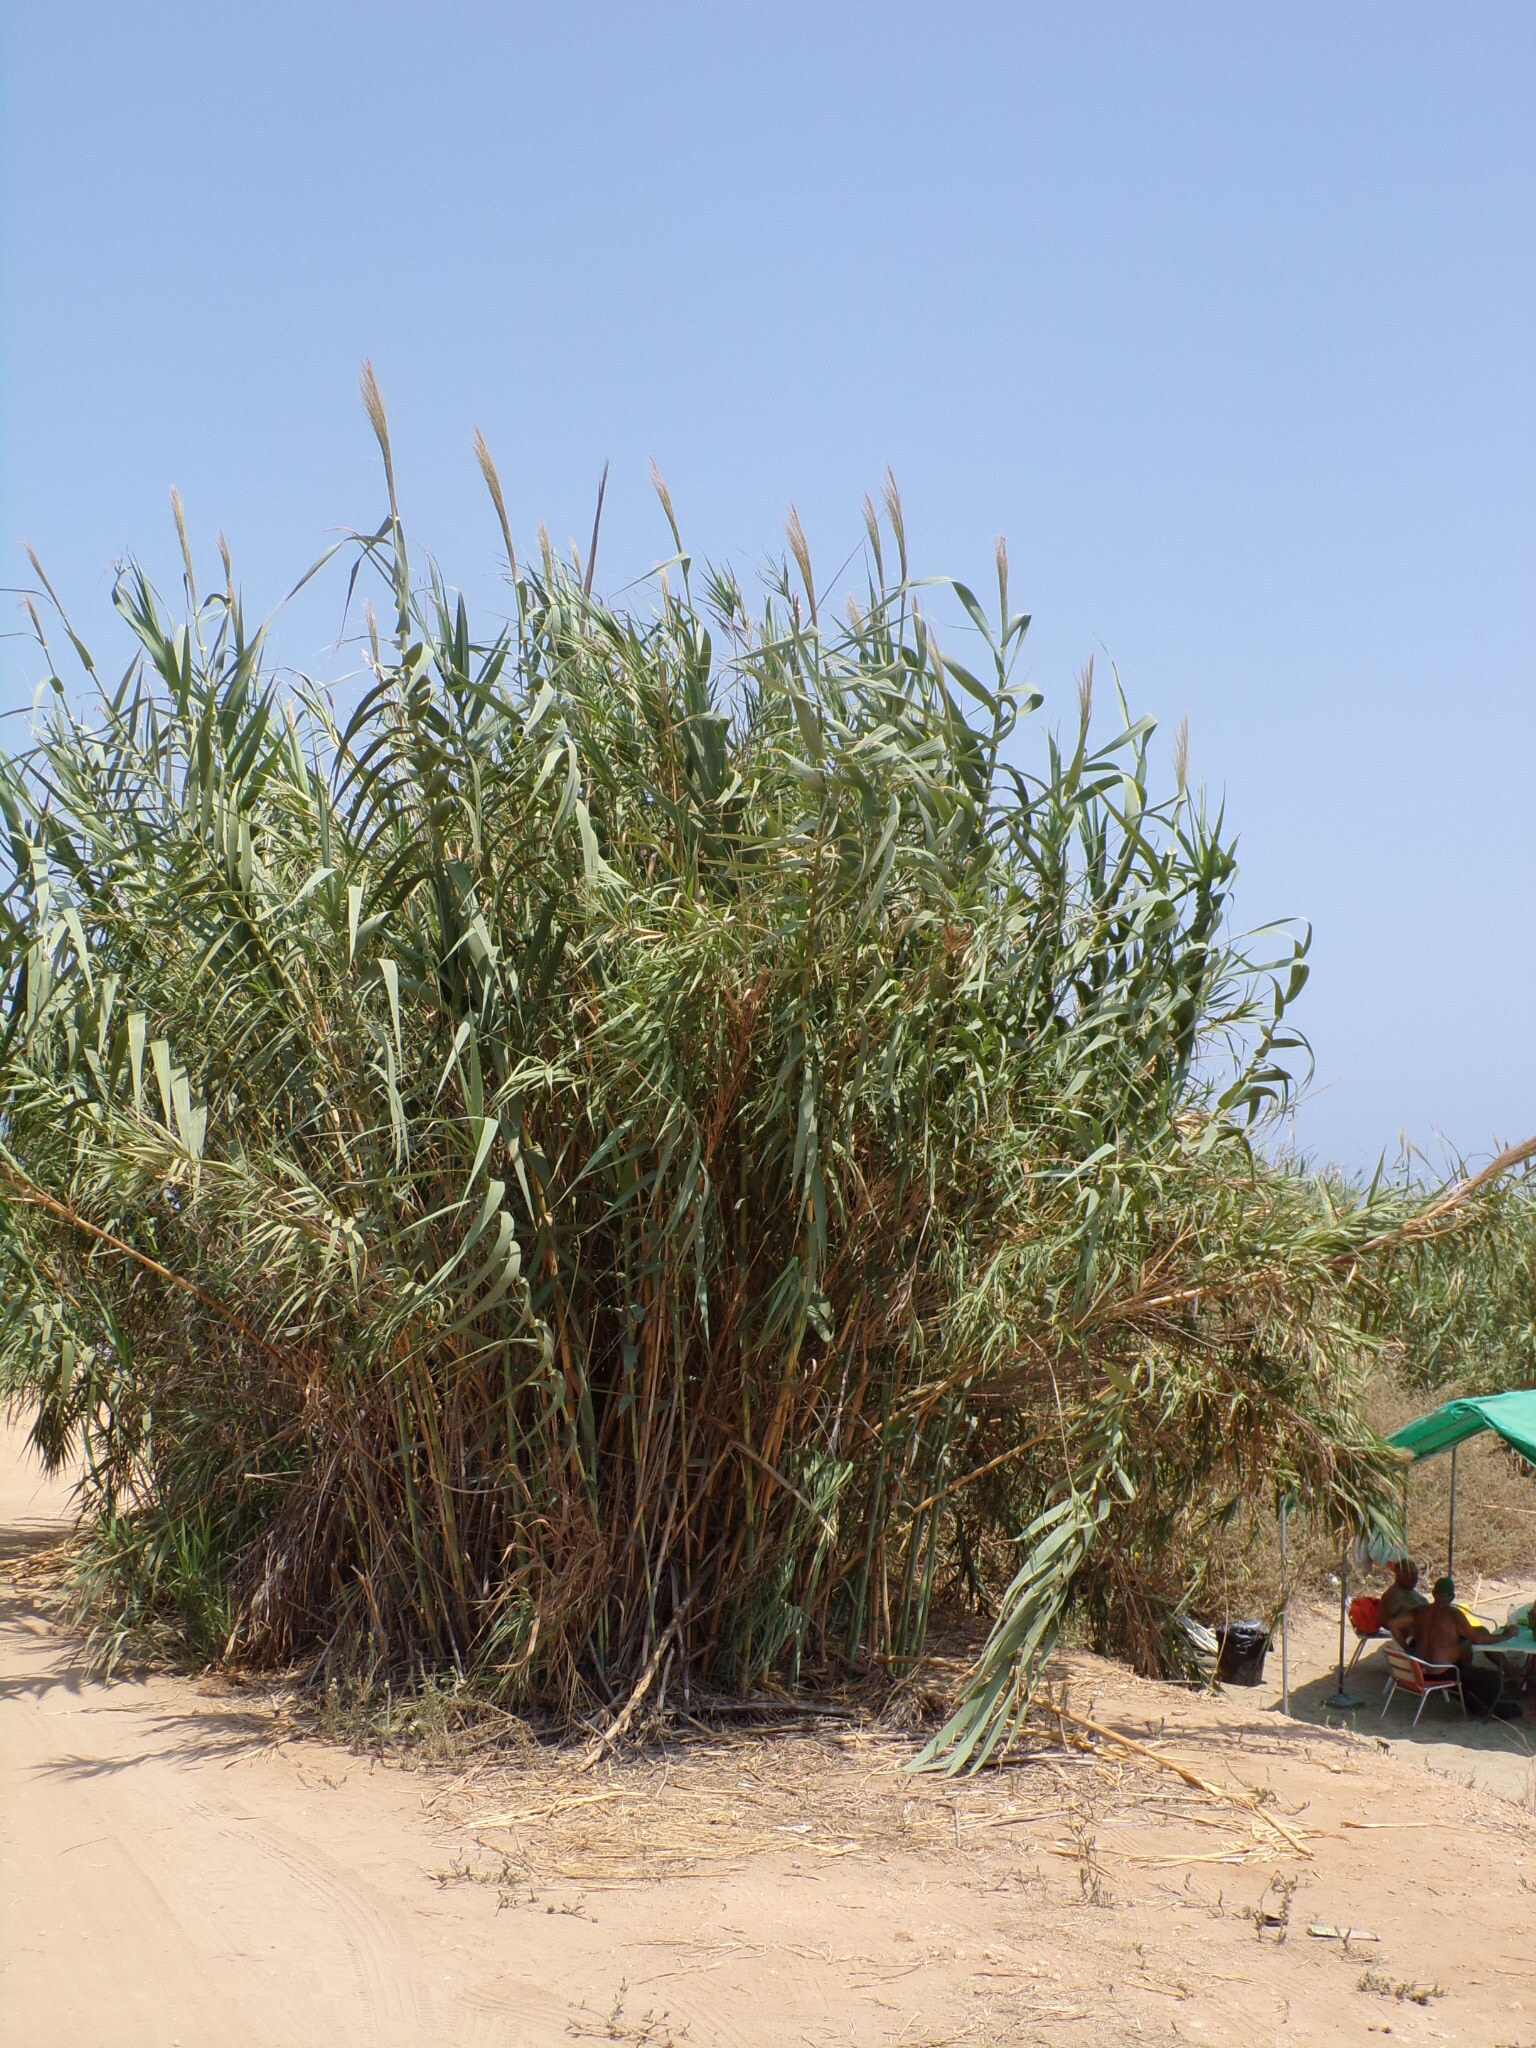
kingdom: Plantae
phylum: Tracheophyta
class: Liliopsida
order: Poales
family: Poaceae
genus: Arundo
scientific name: Arundo donax
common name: Giant reed
